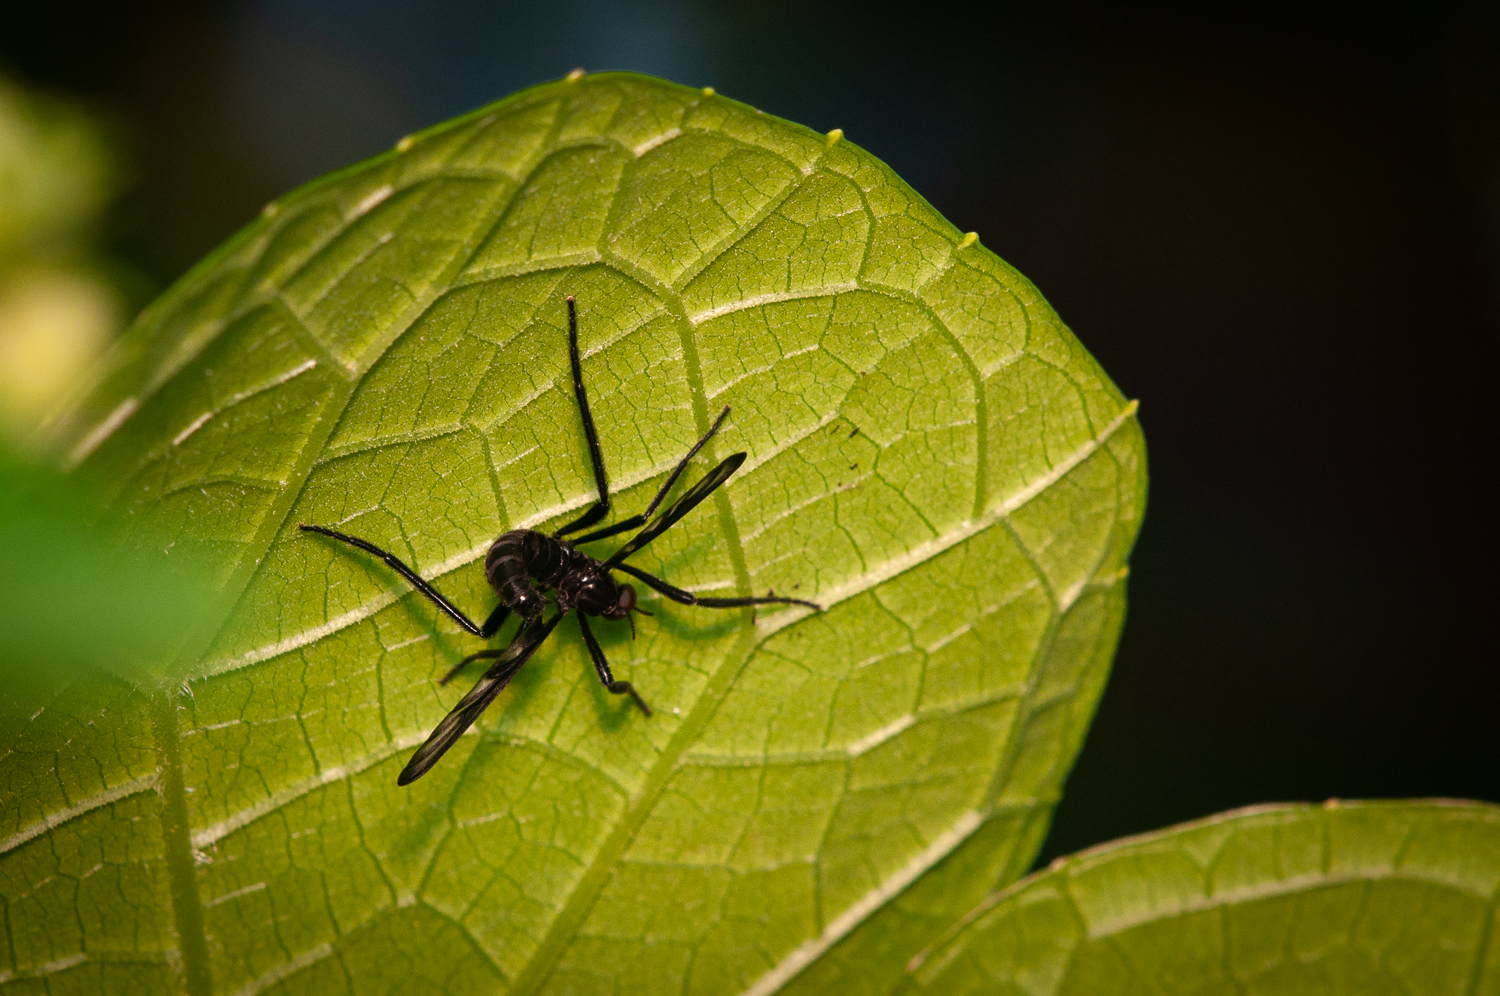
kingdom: Animalia
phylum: Arthropoda
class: Insecta
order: Diptera
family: Bibionidae
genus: Plecia
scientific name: Plecia plagiata
